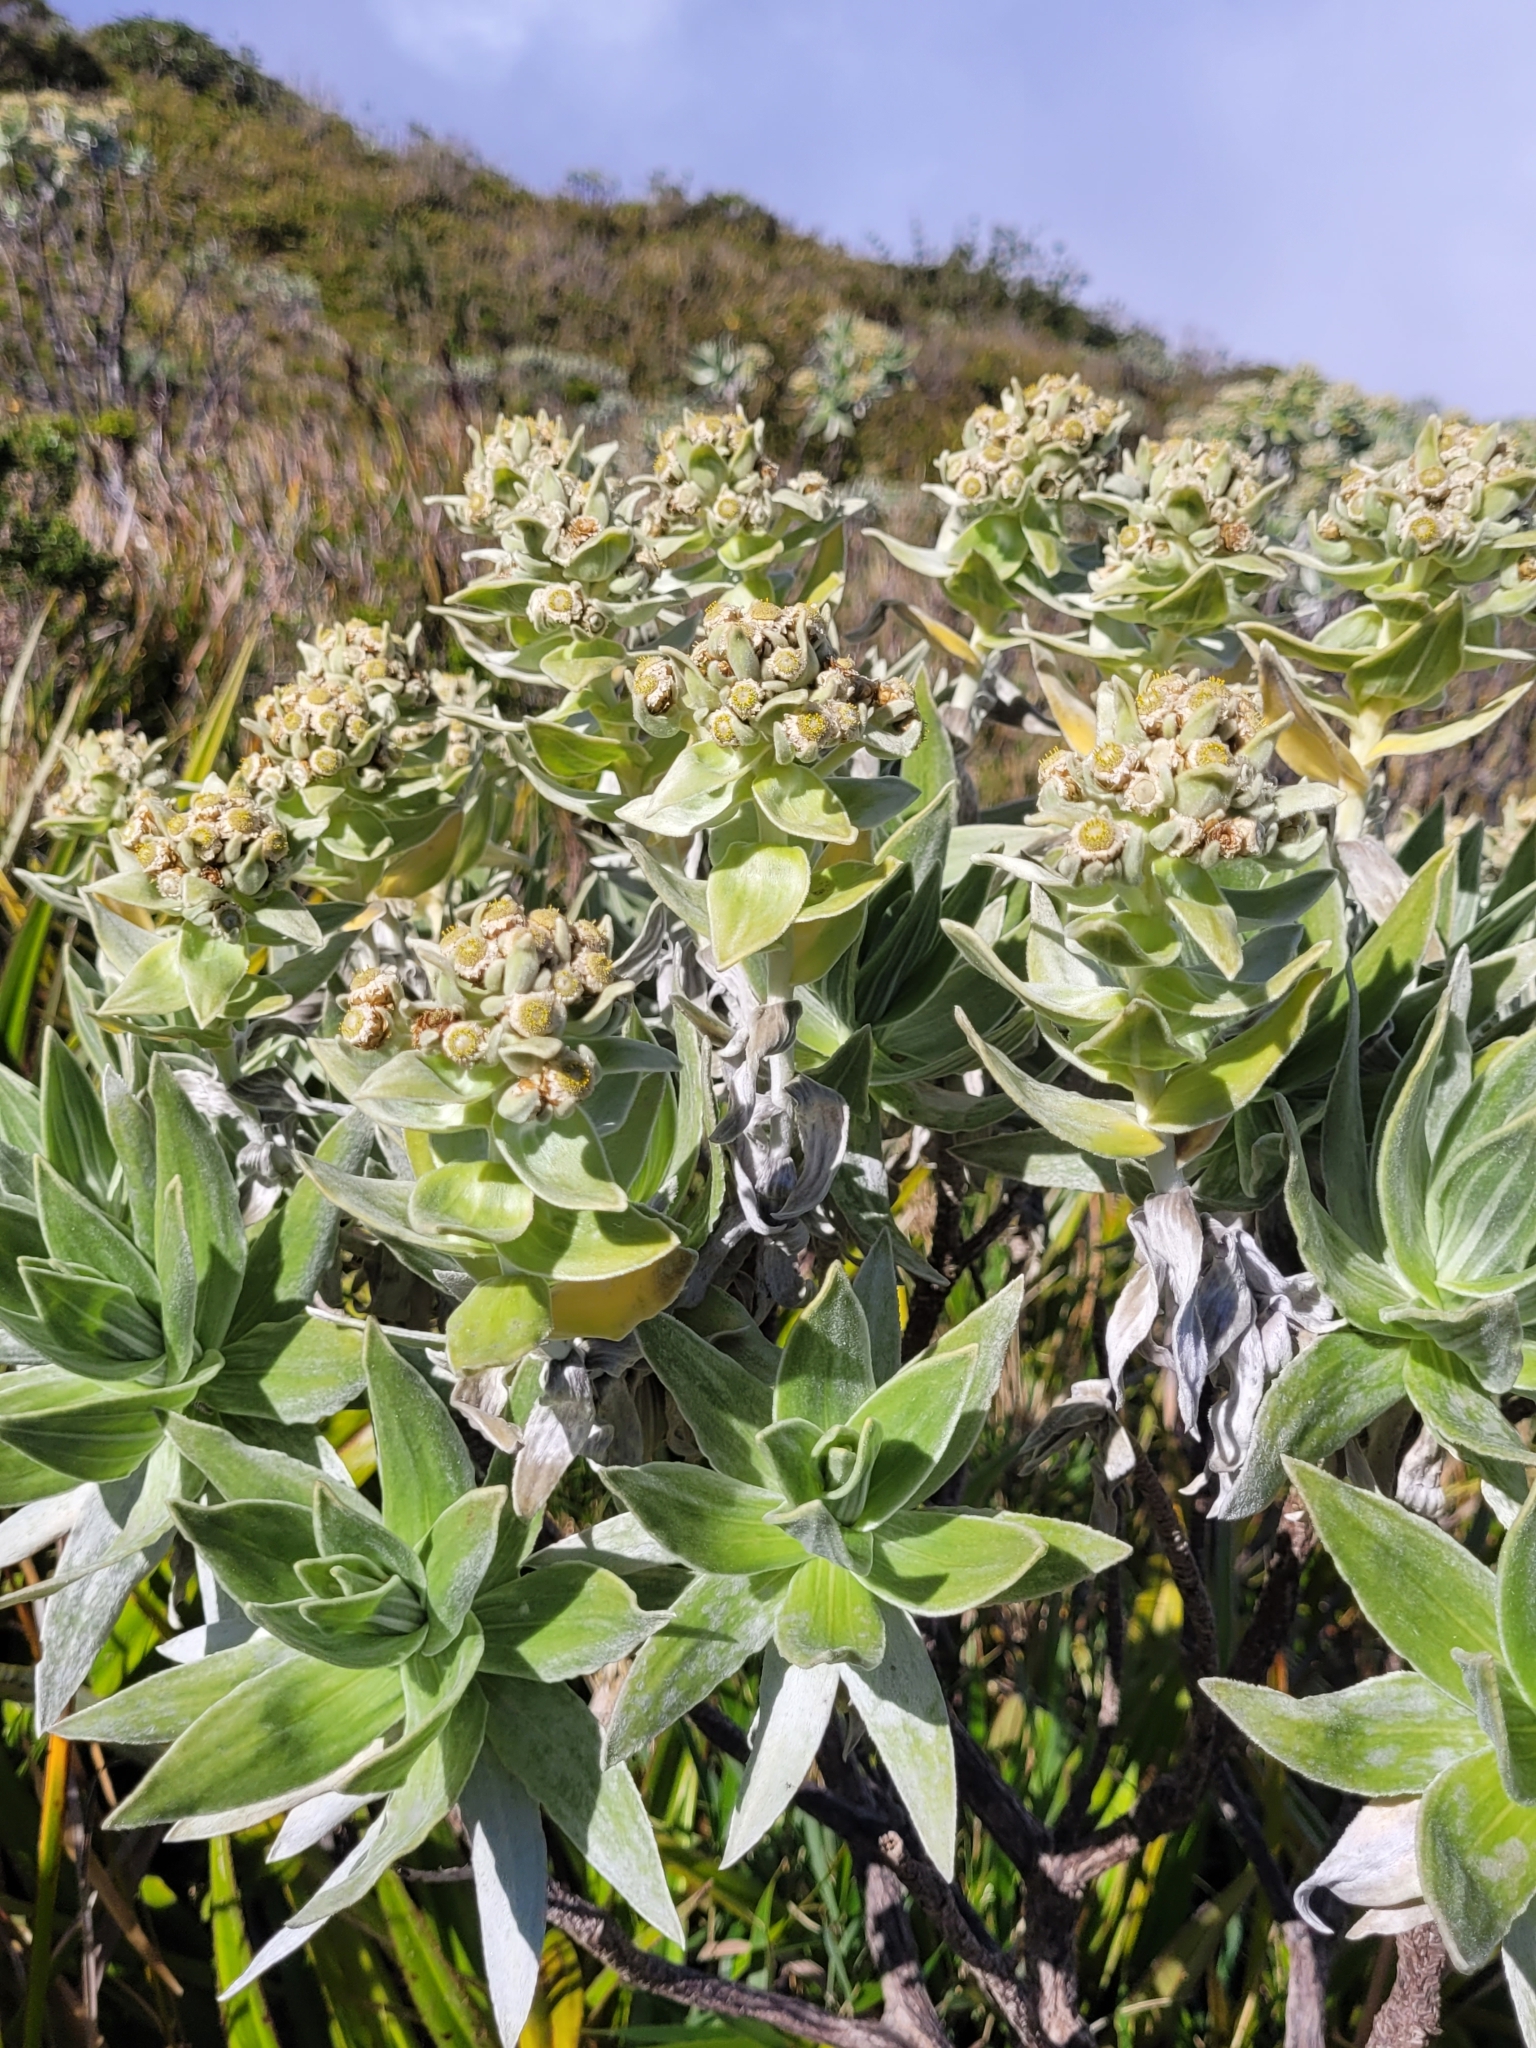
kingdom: Plantae
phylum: Tracheophyta
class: Magnoliopsida
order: Asterales
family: Asteraceae
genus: Helichrysum
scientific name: Helichrysum heliotropifolium
